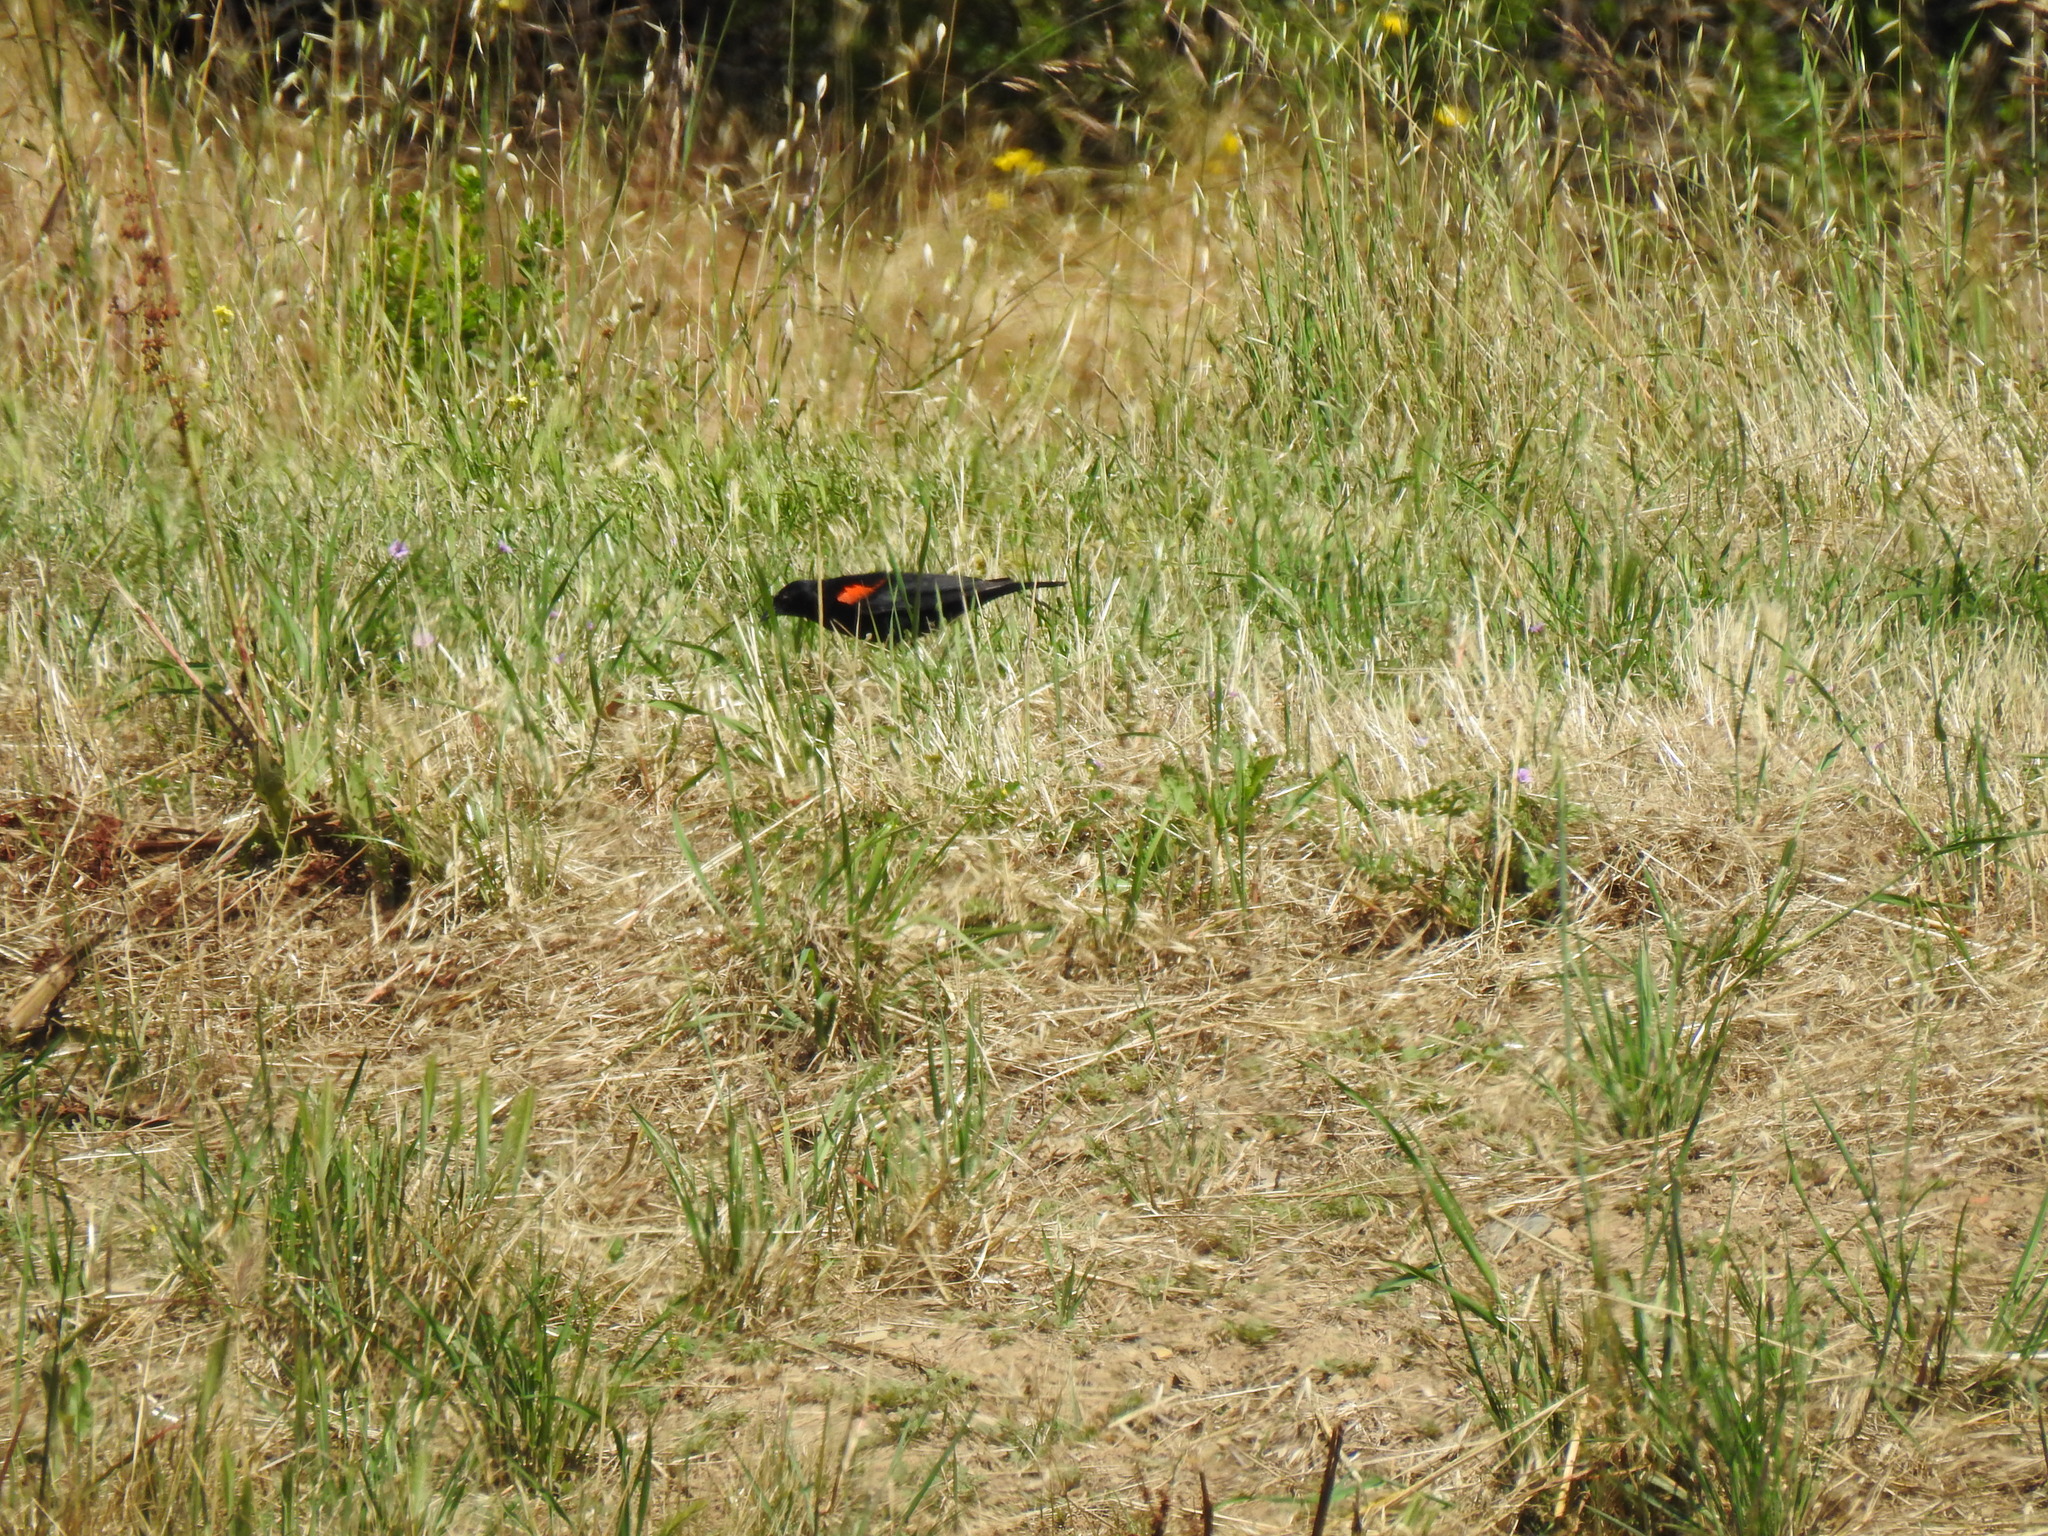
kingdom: Animalia
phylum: Chordata
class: Aves
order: Passeriformes
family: Icteridae
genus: Agelaius
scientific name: Agelaius phoeniceus
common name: Red-winged blackbird
